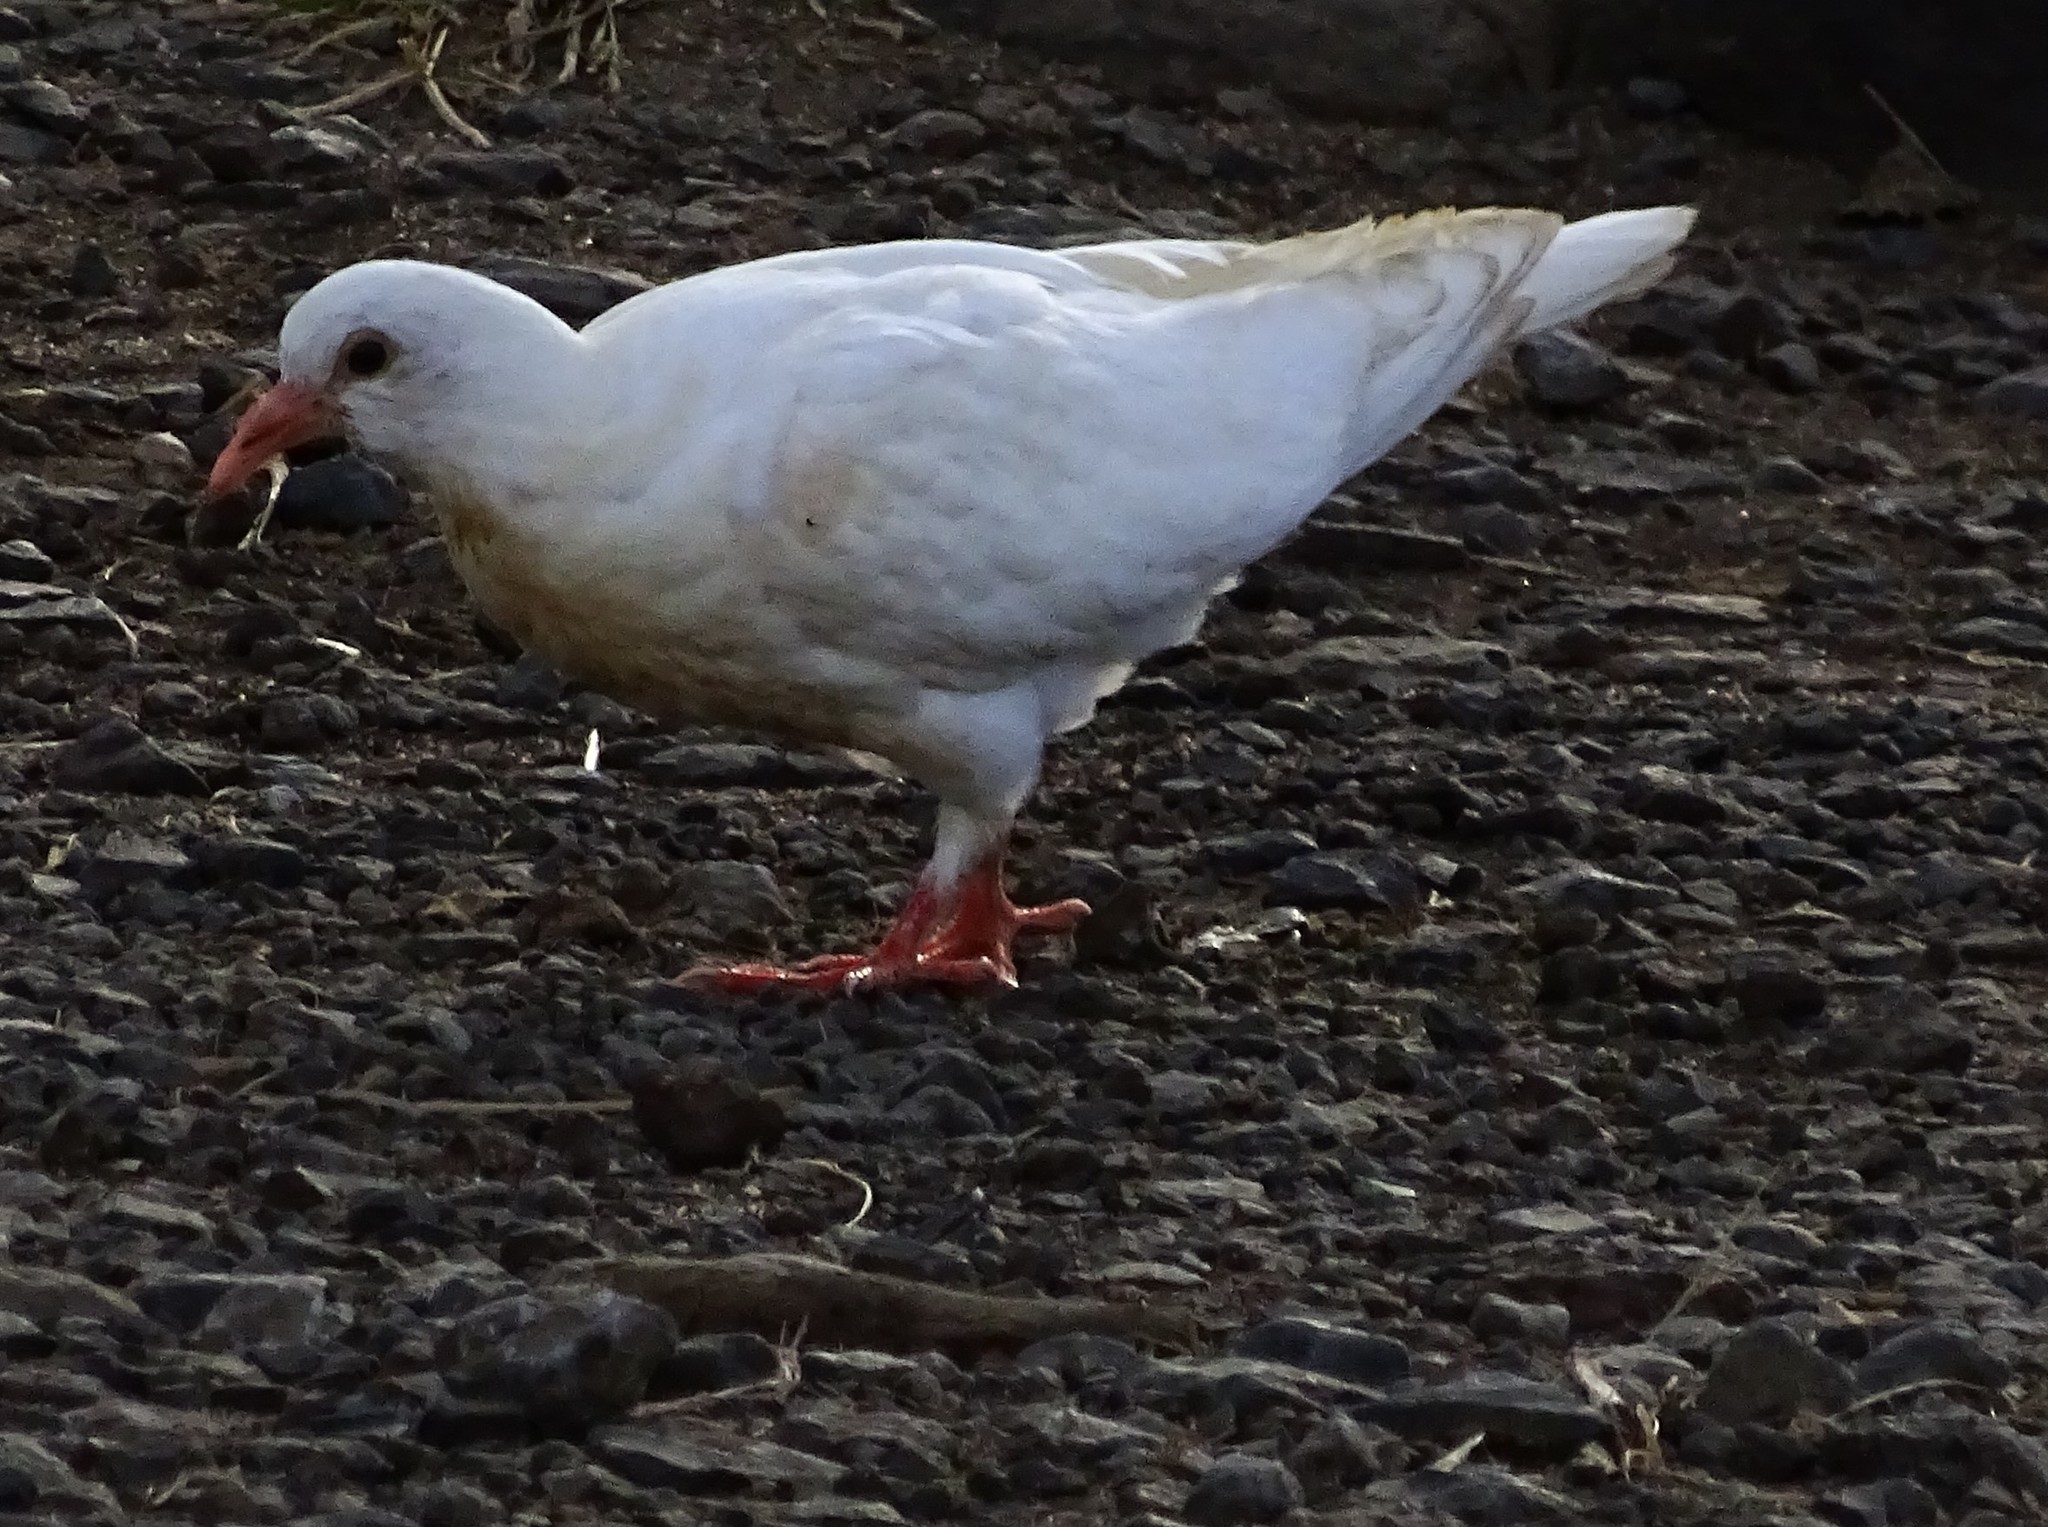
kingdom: Animalia
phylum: Chordata
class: Aves
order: Columbiformes
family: Columbidae
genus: Columba
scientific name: Columba livia
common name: Rock pigeon
